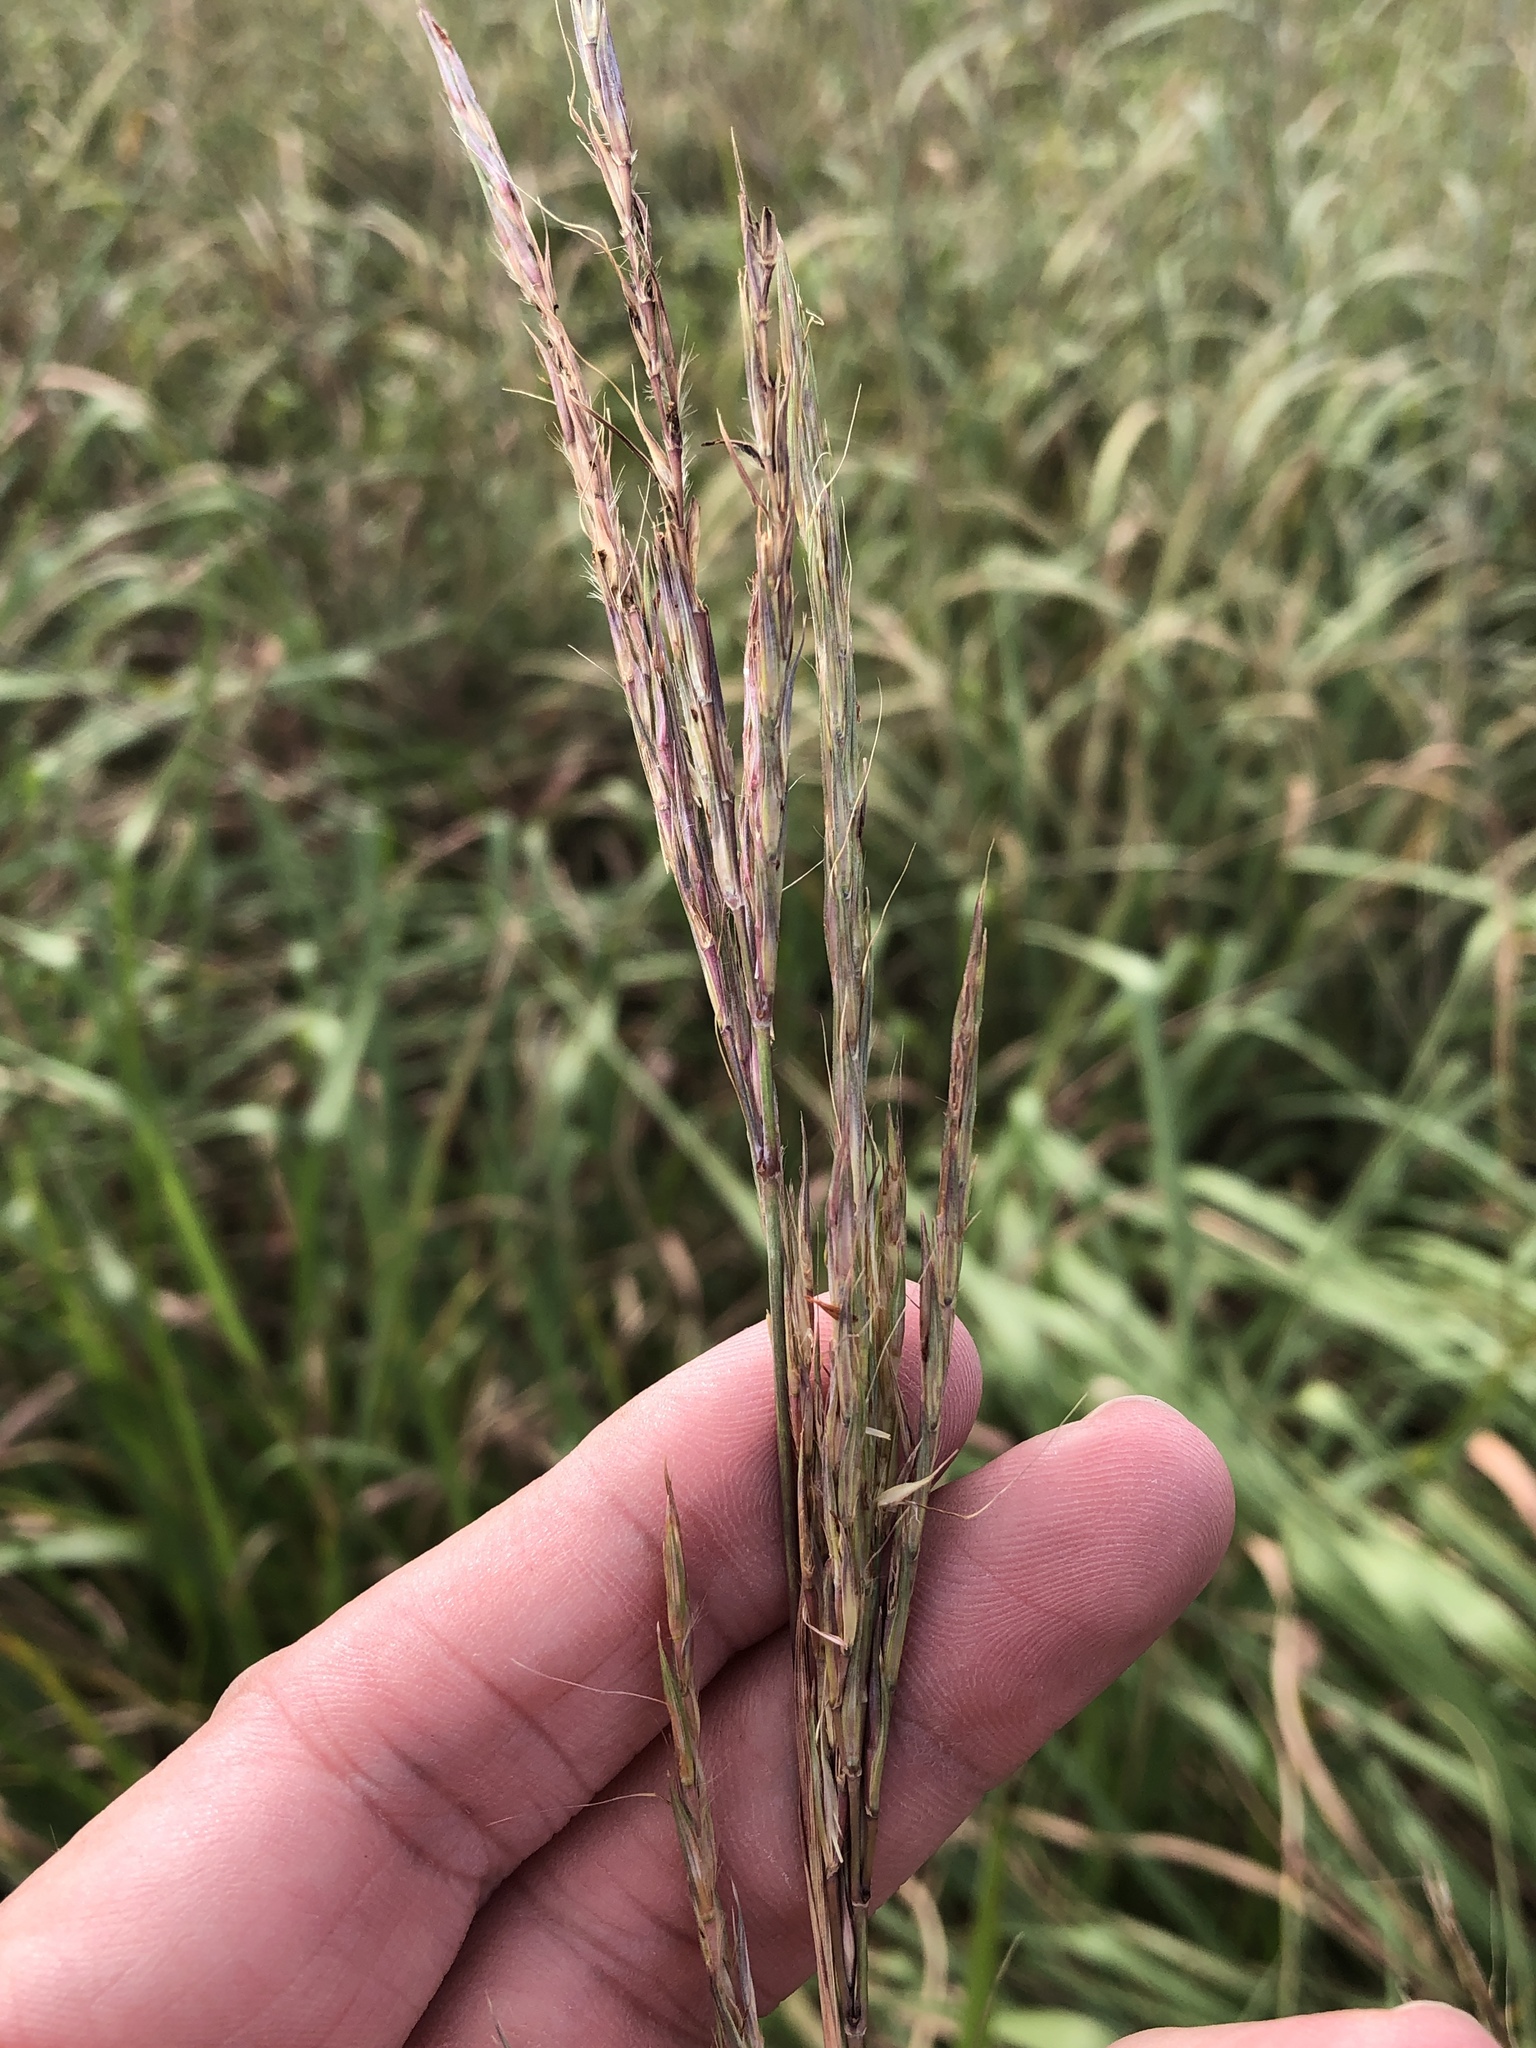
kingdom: Plantae
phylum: Tracheophyta
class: Liliopsida
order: Poales
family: Poaceae
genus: Andropogon
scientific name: Andropogon gerardi
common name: Big bluestem
